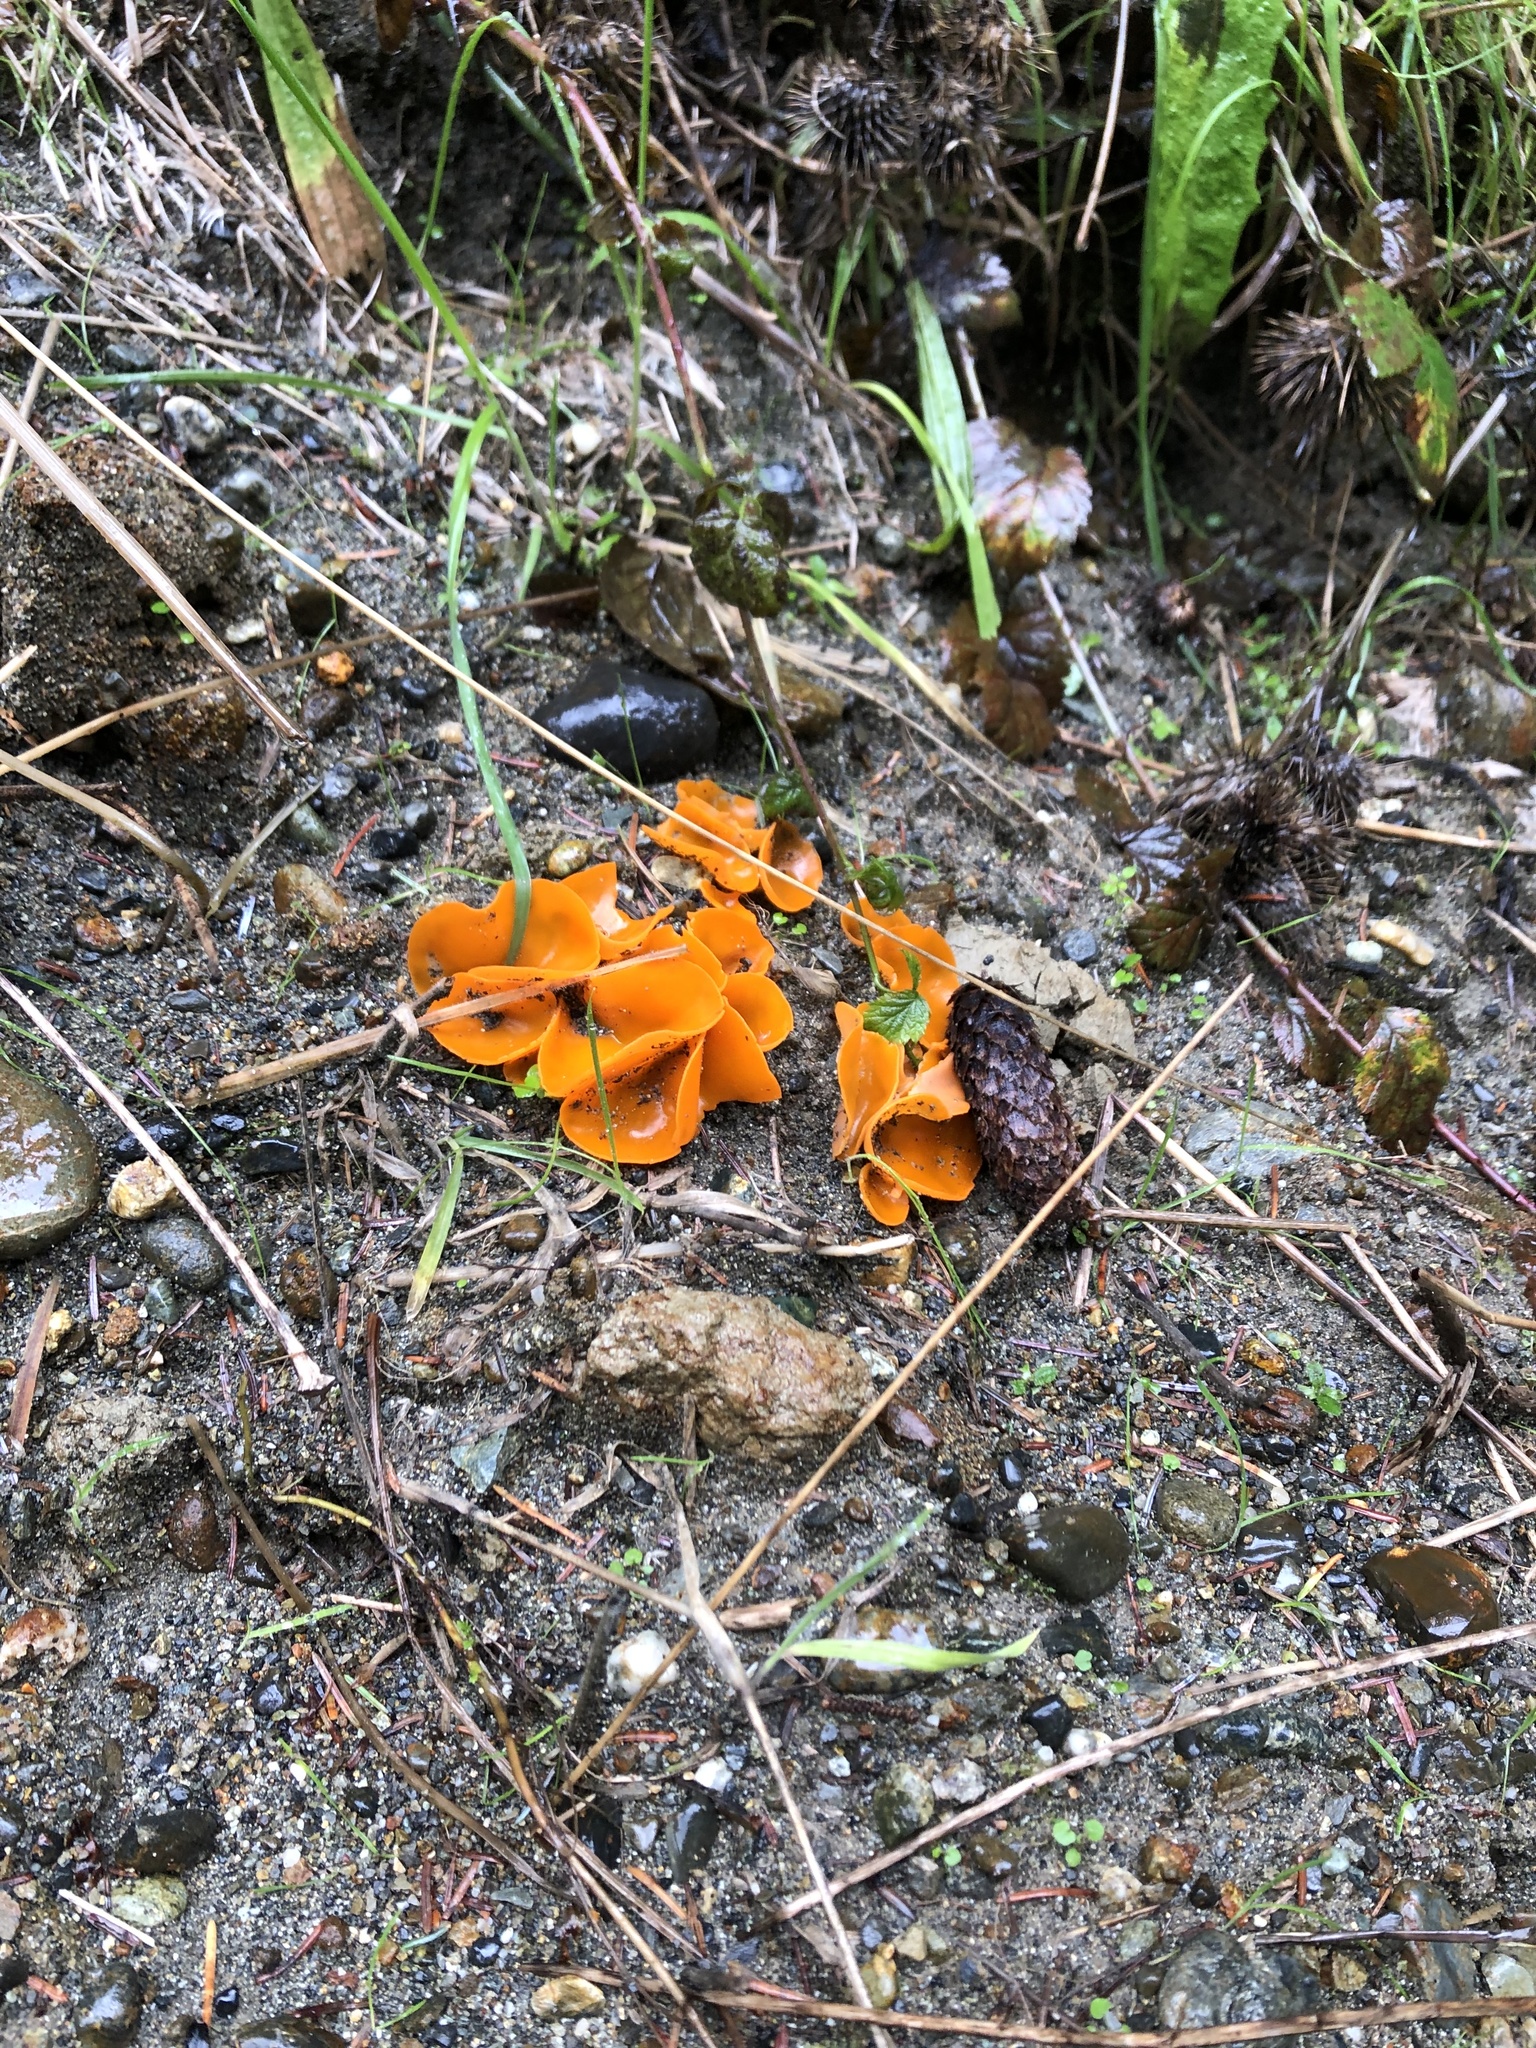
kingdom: Fungi
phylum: Ascomycota
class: Pezizomycetes
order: Pezizales
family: Pyronemataceae
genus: Aleuria
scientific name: Aleuria aurantia
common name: Orange peel fungus
